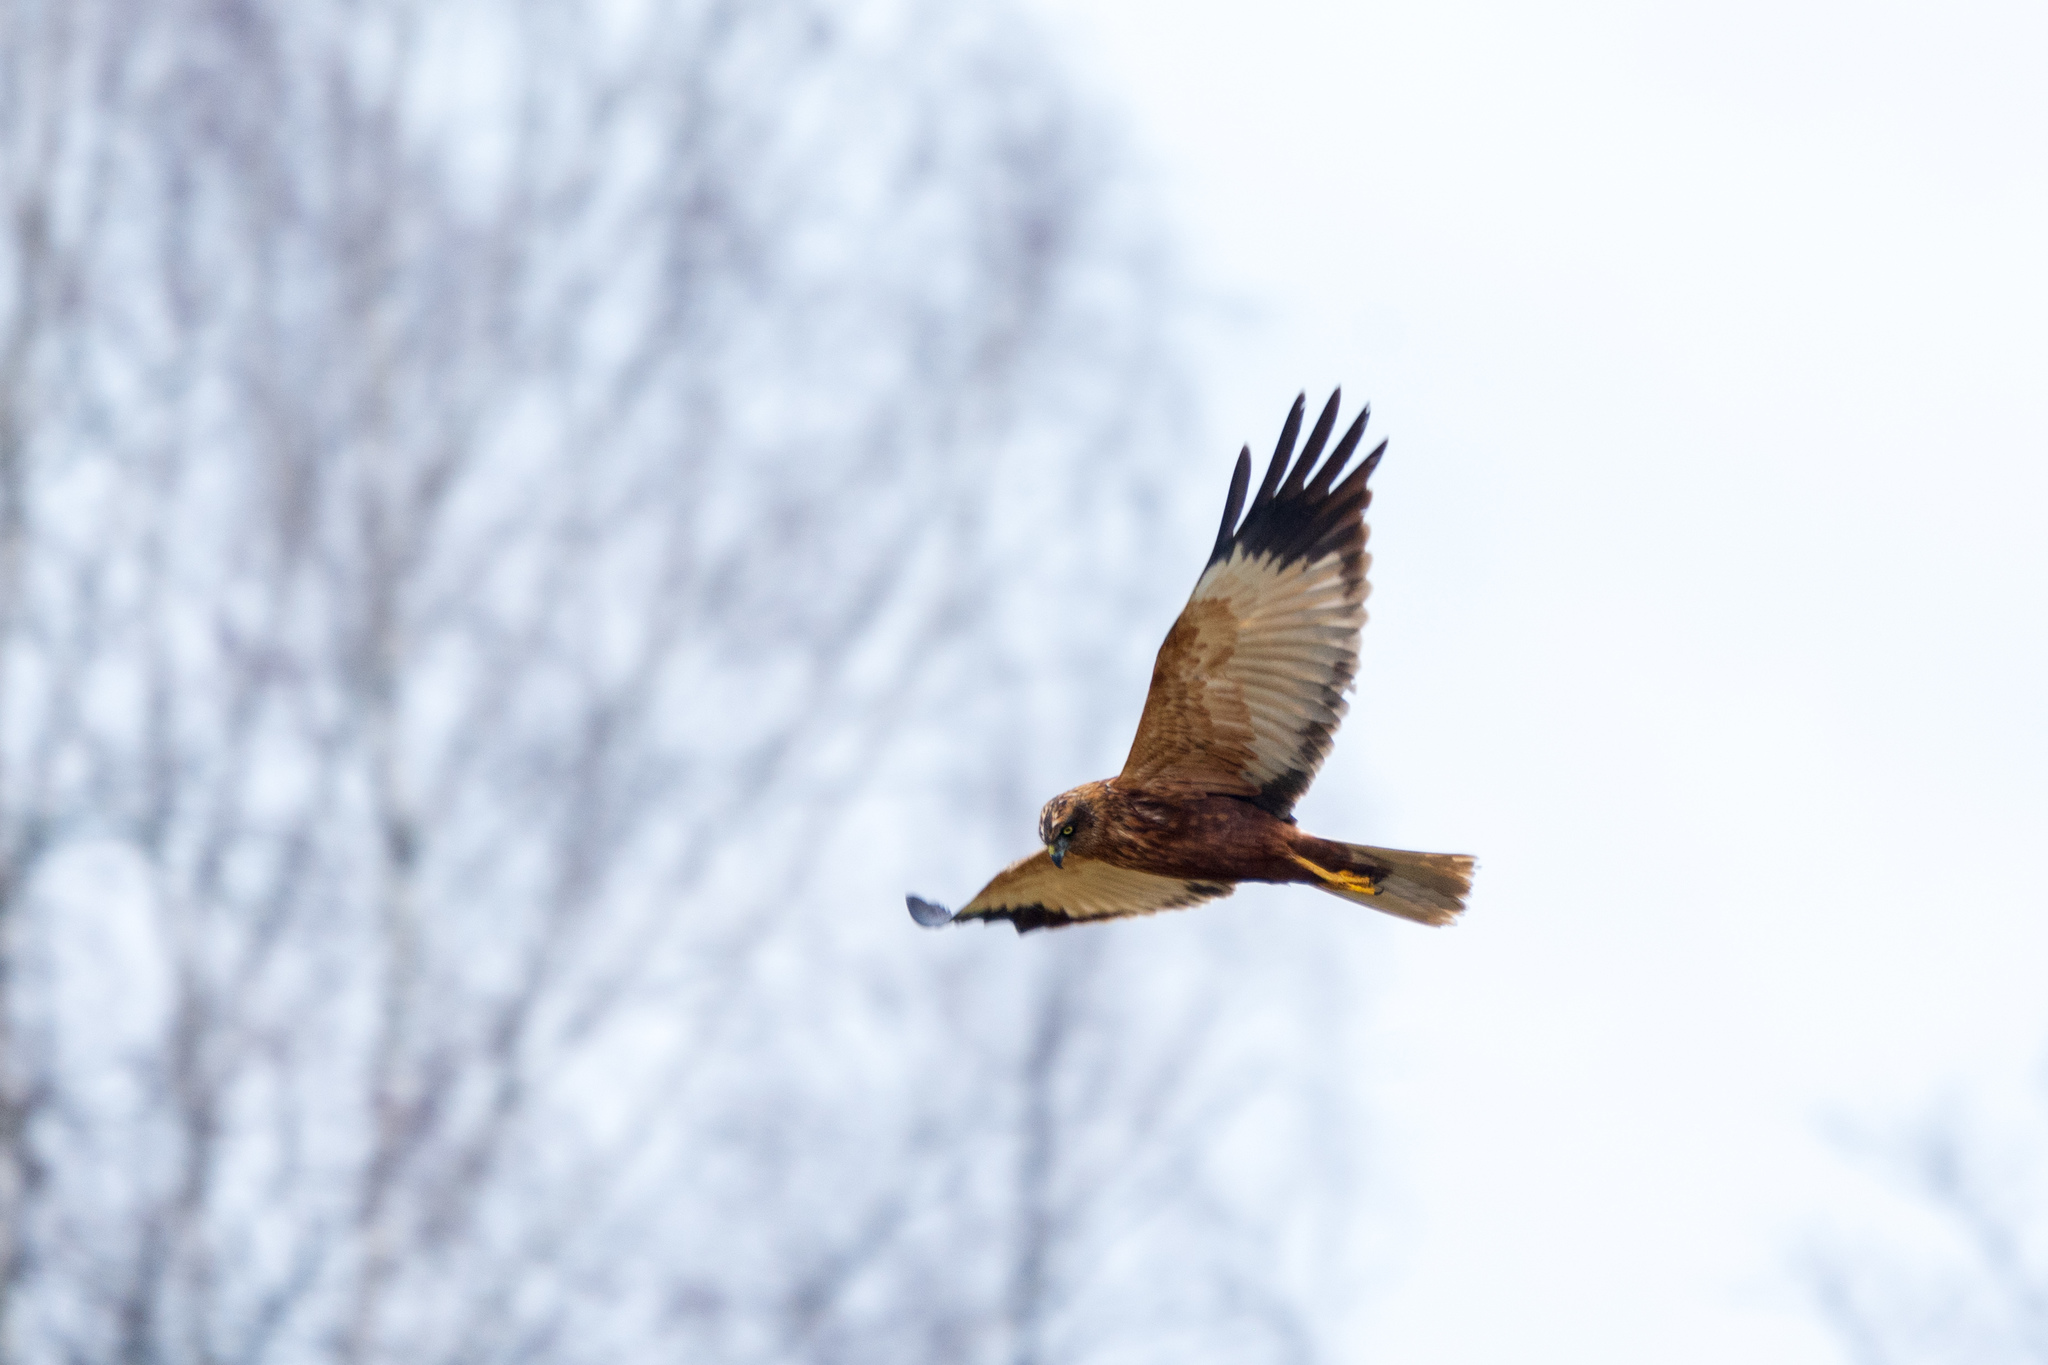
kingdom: Animalia
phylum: Chordata
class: Aves
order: Accipitriformes
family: Accipitridae
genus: Circus
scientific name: Circus aeruginosus
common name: Western marsh harrier
